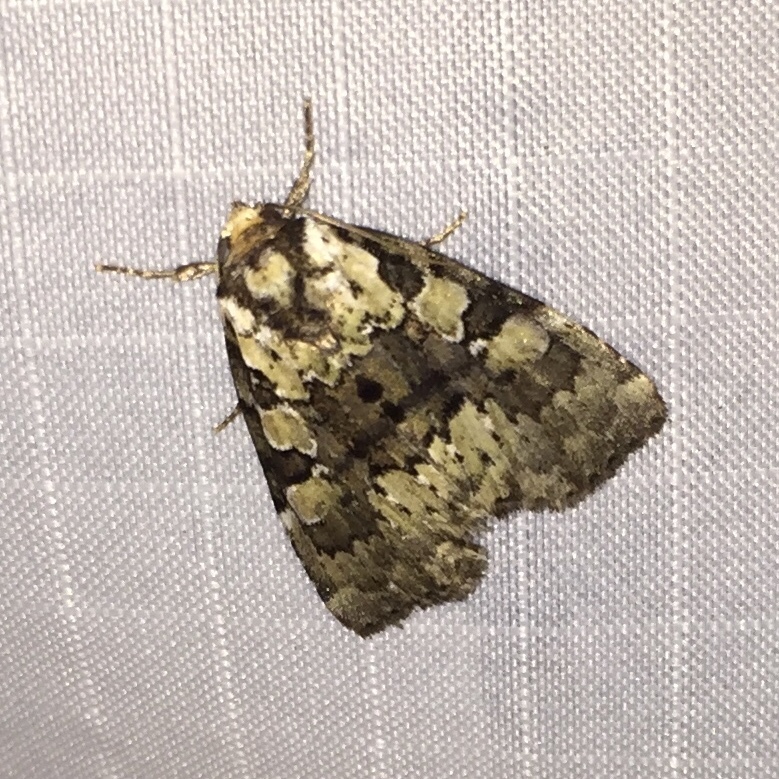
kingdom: Animalia
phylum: Arthropoda
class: Insecta
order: Lepidoptera
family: Noctuidae
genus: Leuconycta
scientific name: Leuconycta lepidula
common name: Marbled-green leuconycta moth
